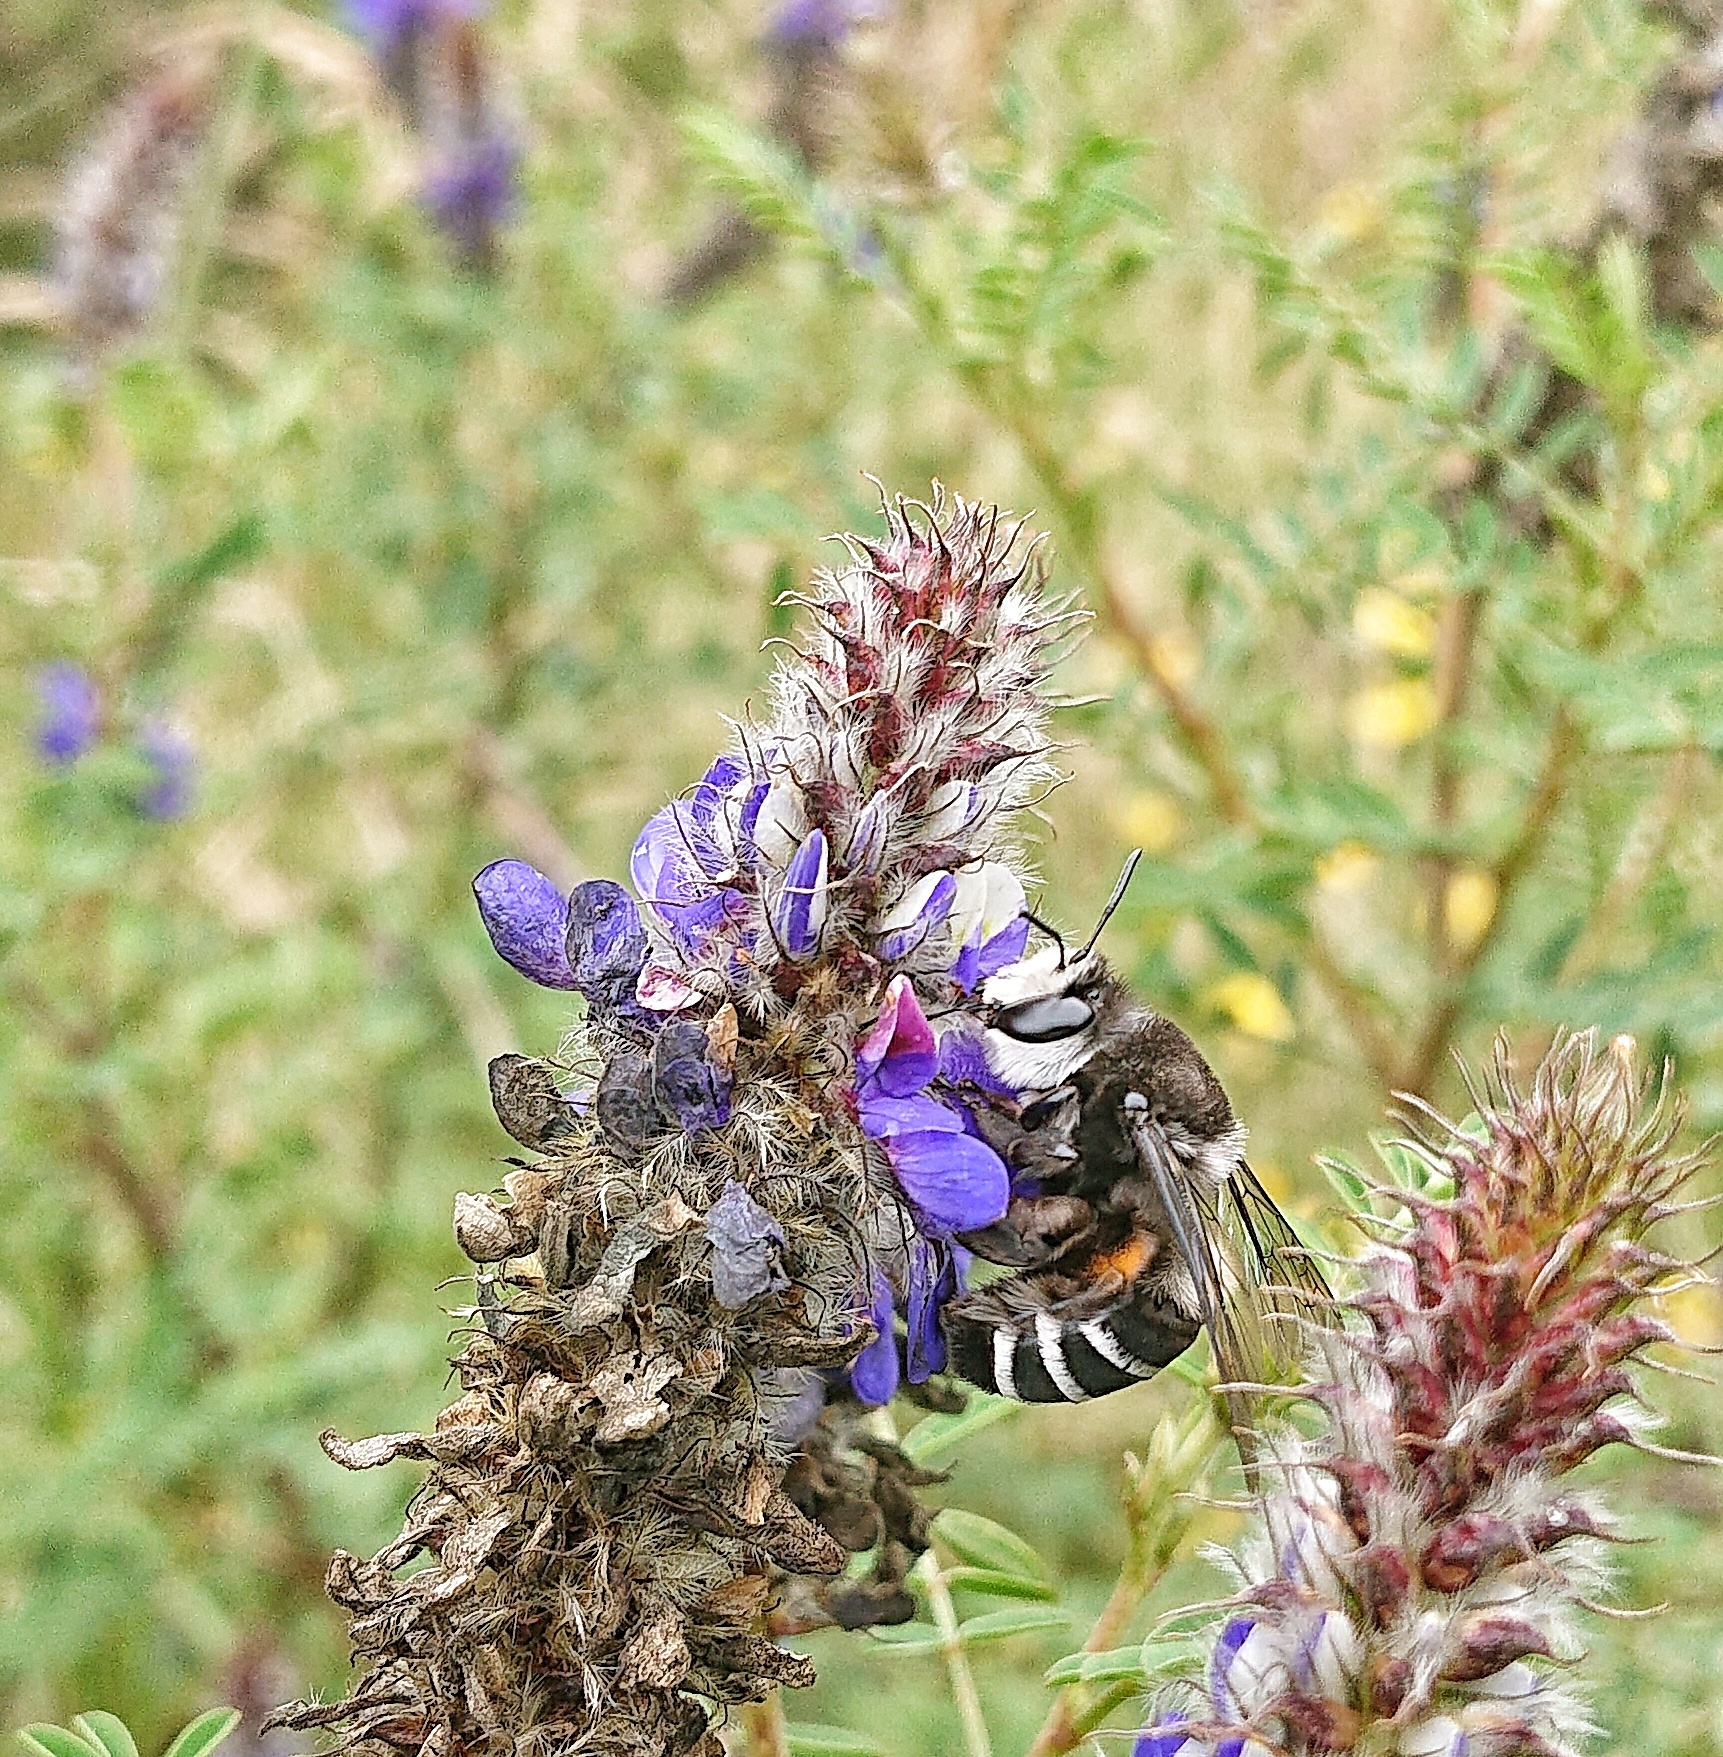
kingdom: Animalia
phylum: Arthropoda
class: Insecta
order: Hymenoptera
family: Colletidae
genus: Caupolicana
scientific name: Caupolicana niveofasciata
